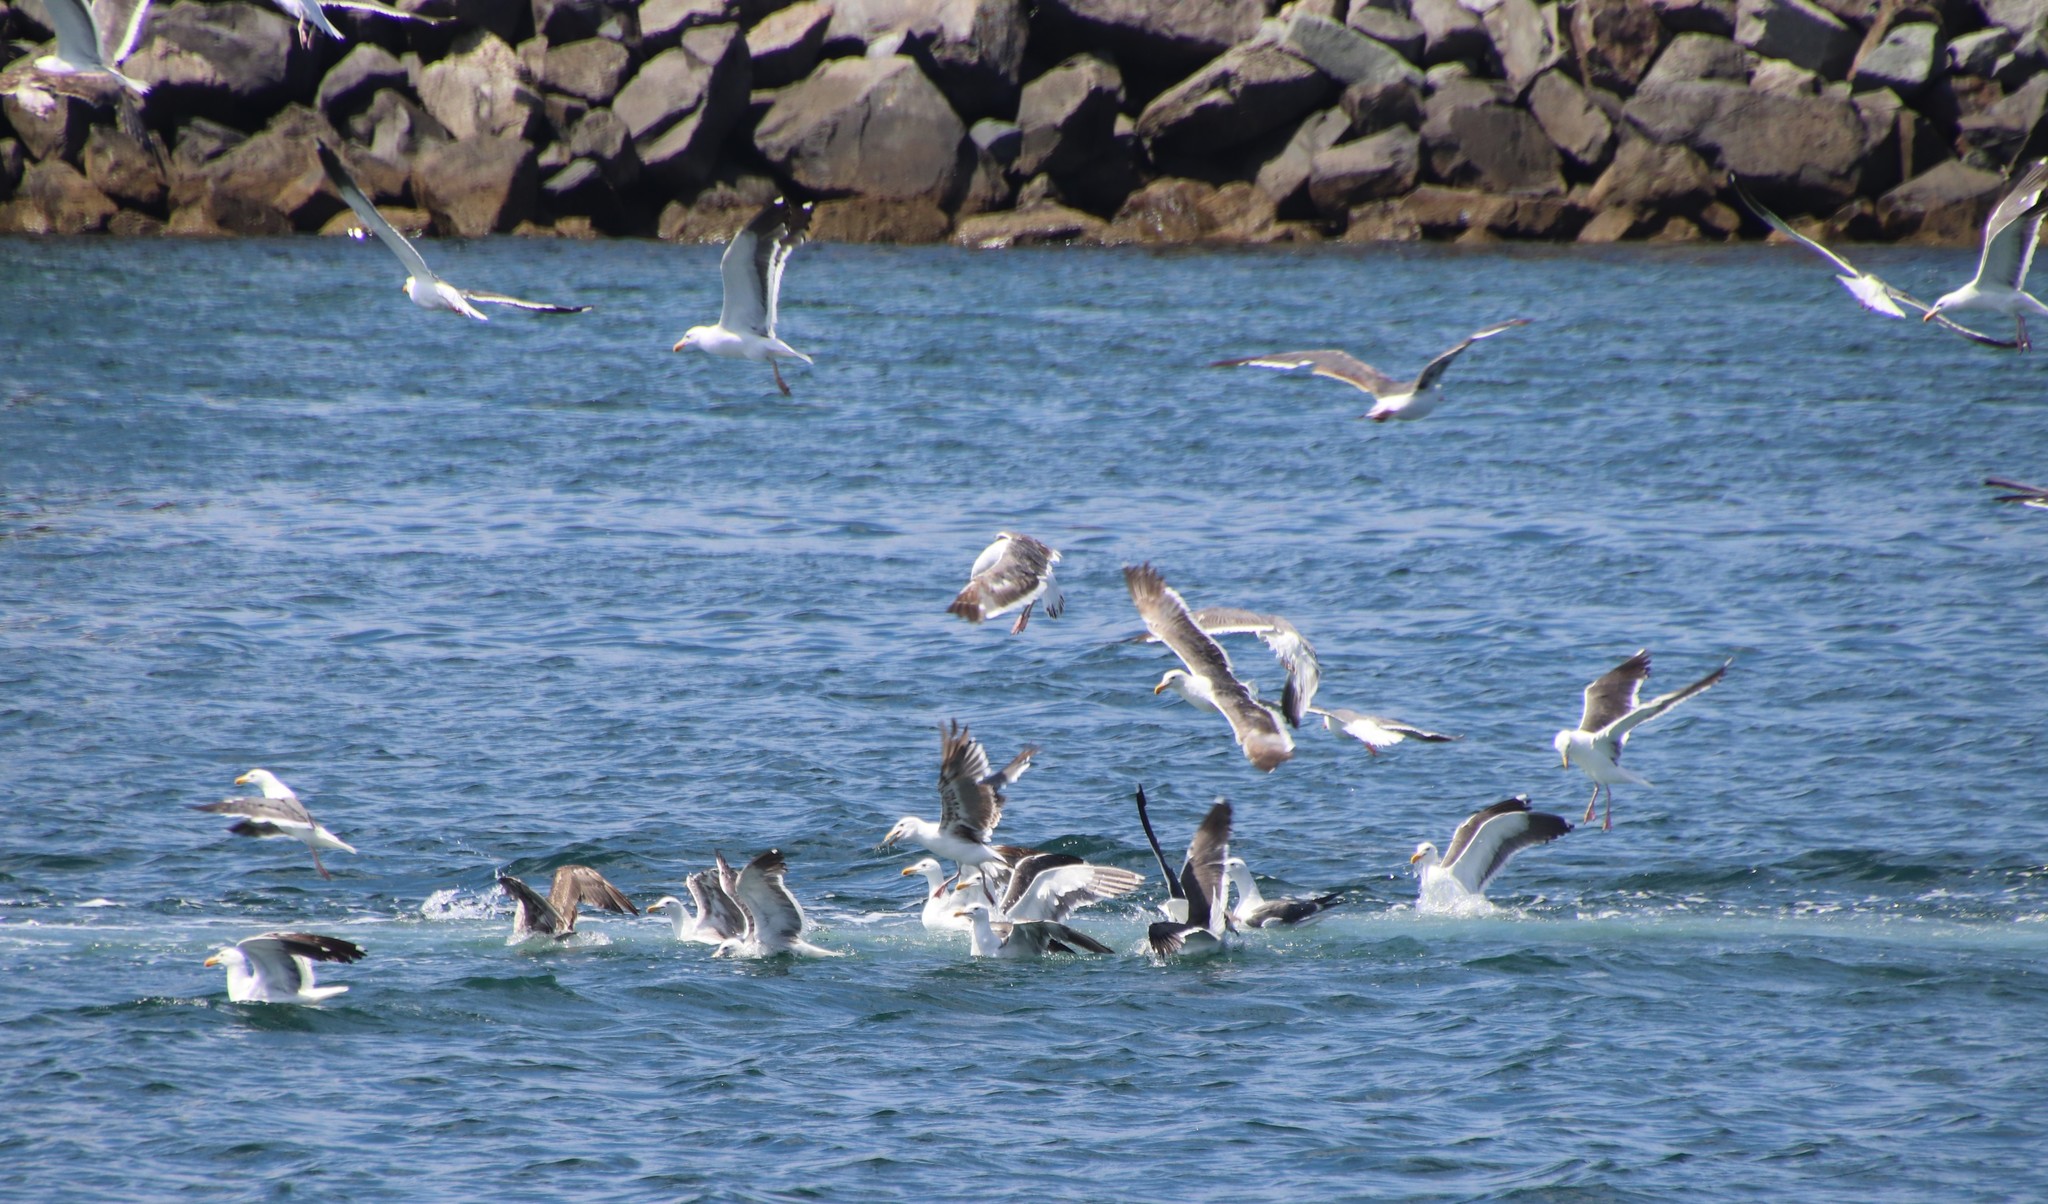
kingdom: Animalia
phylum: Chordata
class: Aves
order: Charadriiformes
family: Laridae
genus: Larus
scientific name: Larus occidentalis
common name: Western gull
